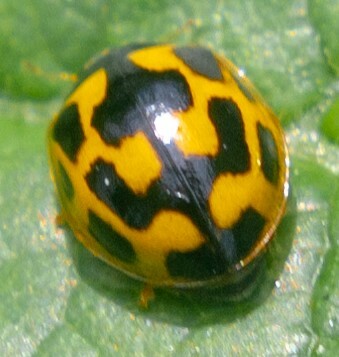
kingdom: Animalia
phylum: Arthropoda
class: Insecta
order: Coleoptera
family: Coccinellidae
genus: Propylaea
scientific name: Propylaea quatuordecimpunctata
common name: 14-spotted ladybird beetle
